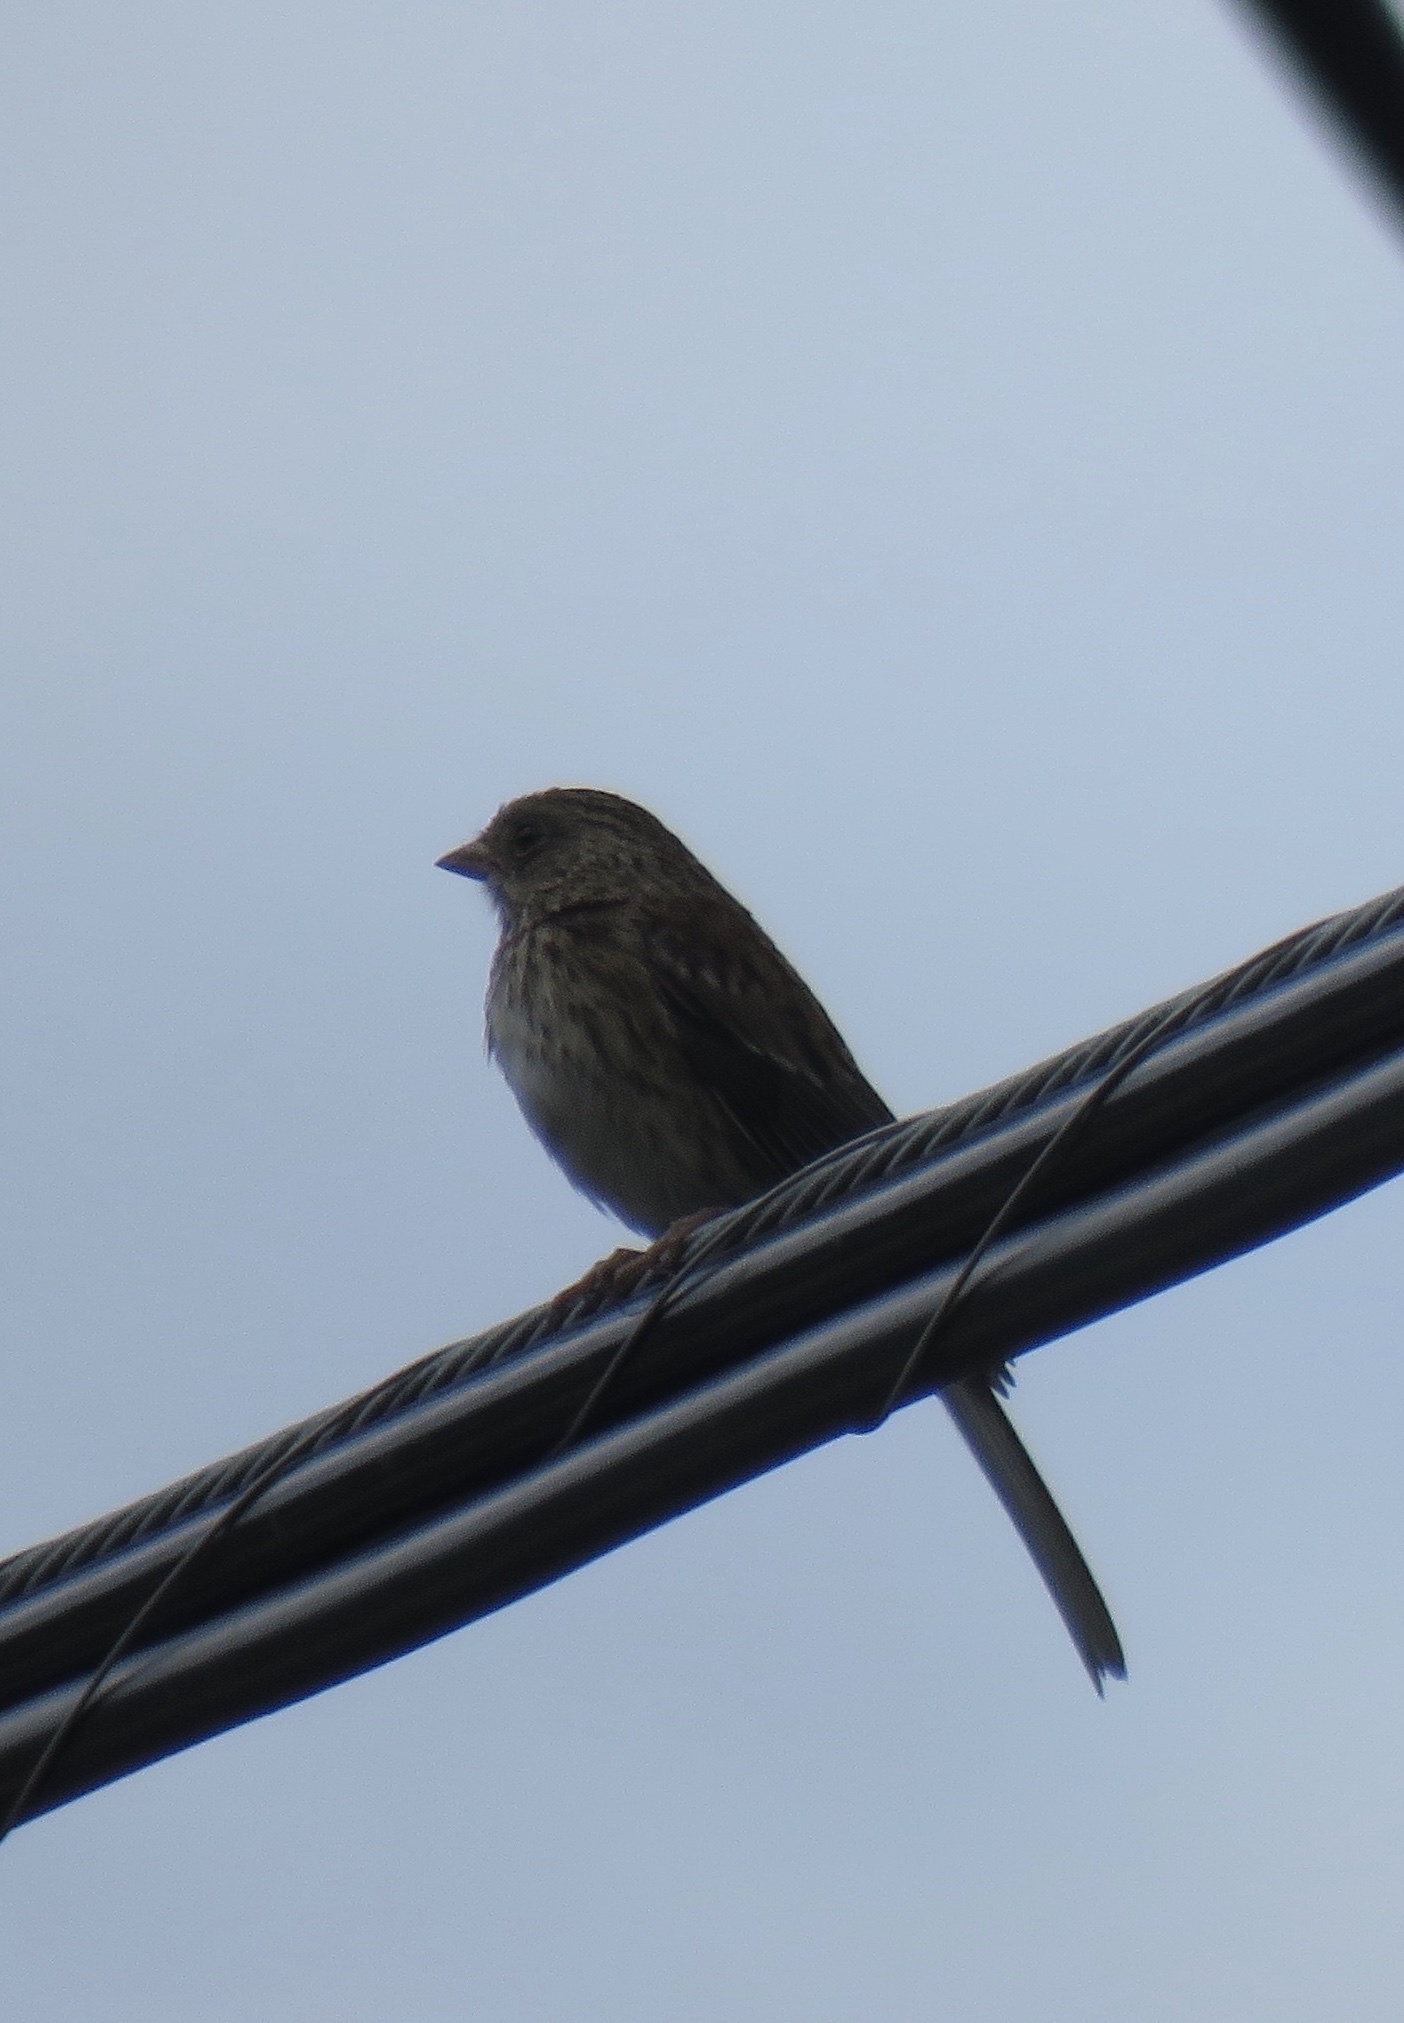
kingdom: Animalia
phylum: Chordata
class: Aves
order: Passeriformes
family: Passerellidae
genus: Junco
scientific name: Junco hyemalis
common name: Dark-eyed junco
